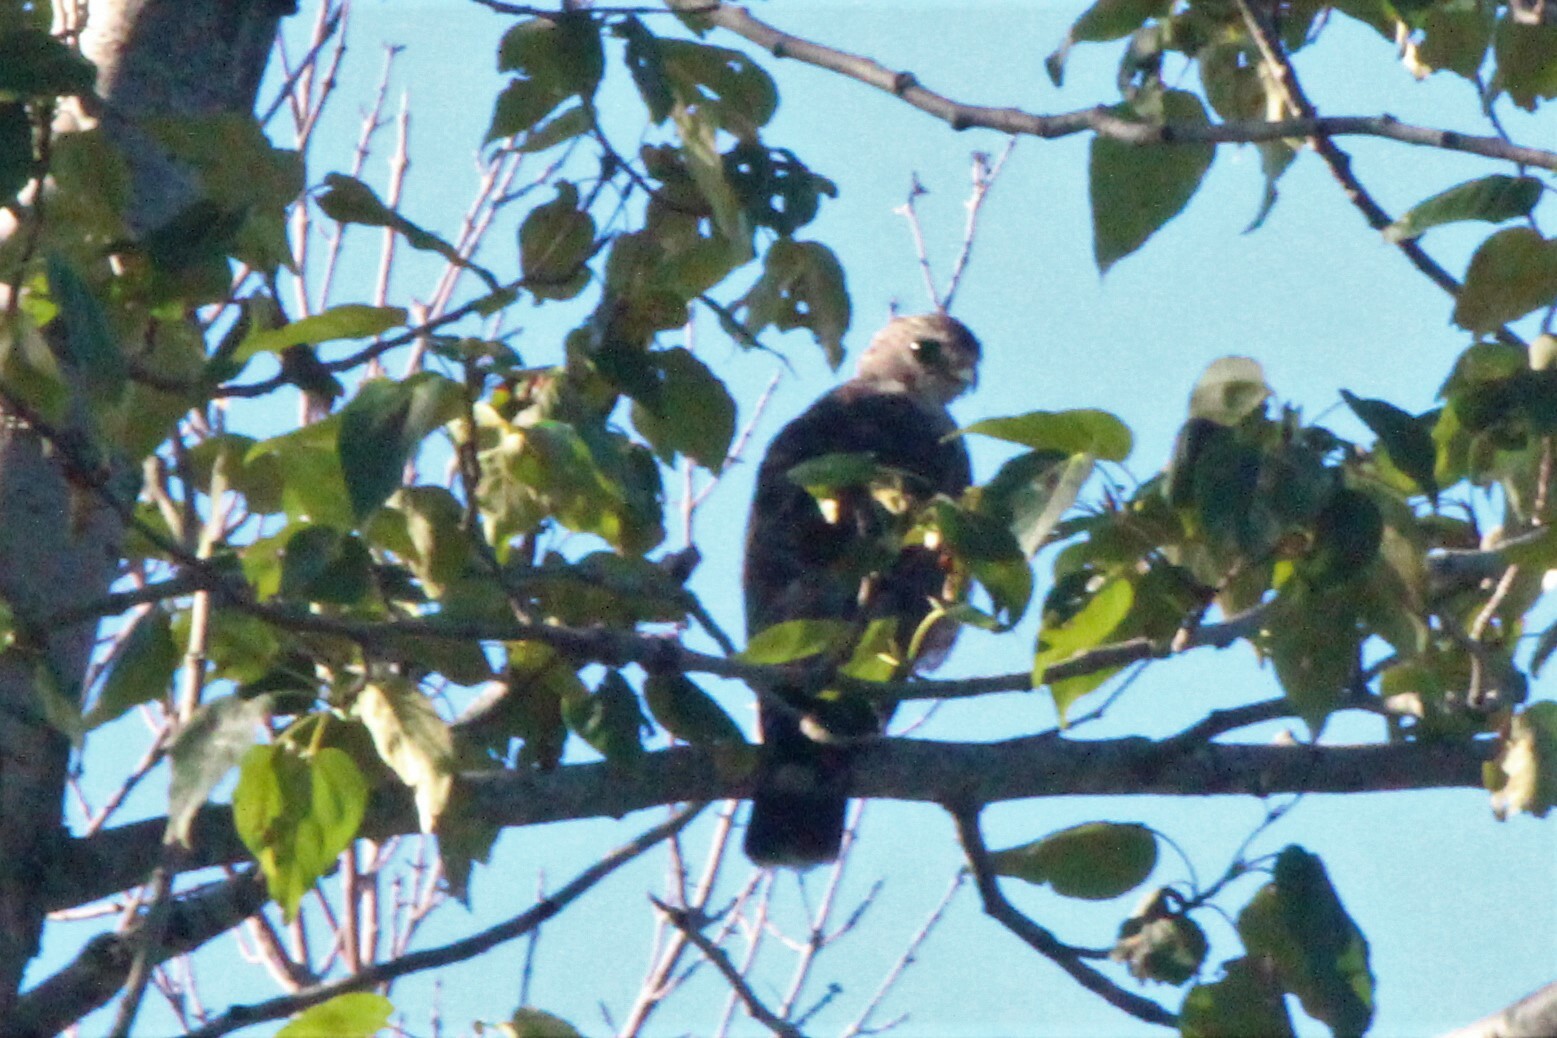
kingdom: Animalia
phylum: Chordata
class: Aves
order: Accipitriformes
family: Accipitridae
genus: Buteo
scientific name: Buteo platypterus
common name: Broad-winged hawk
